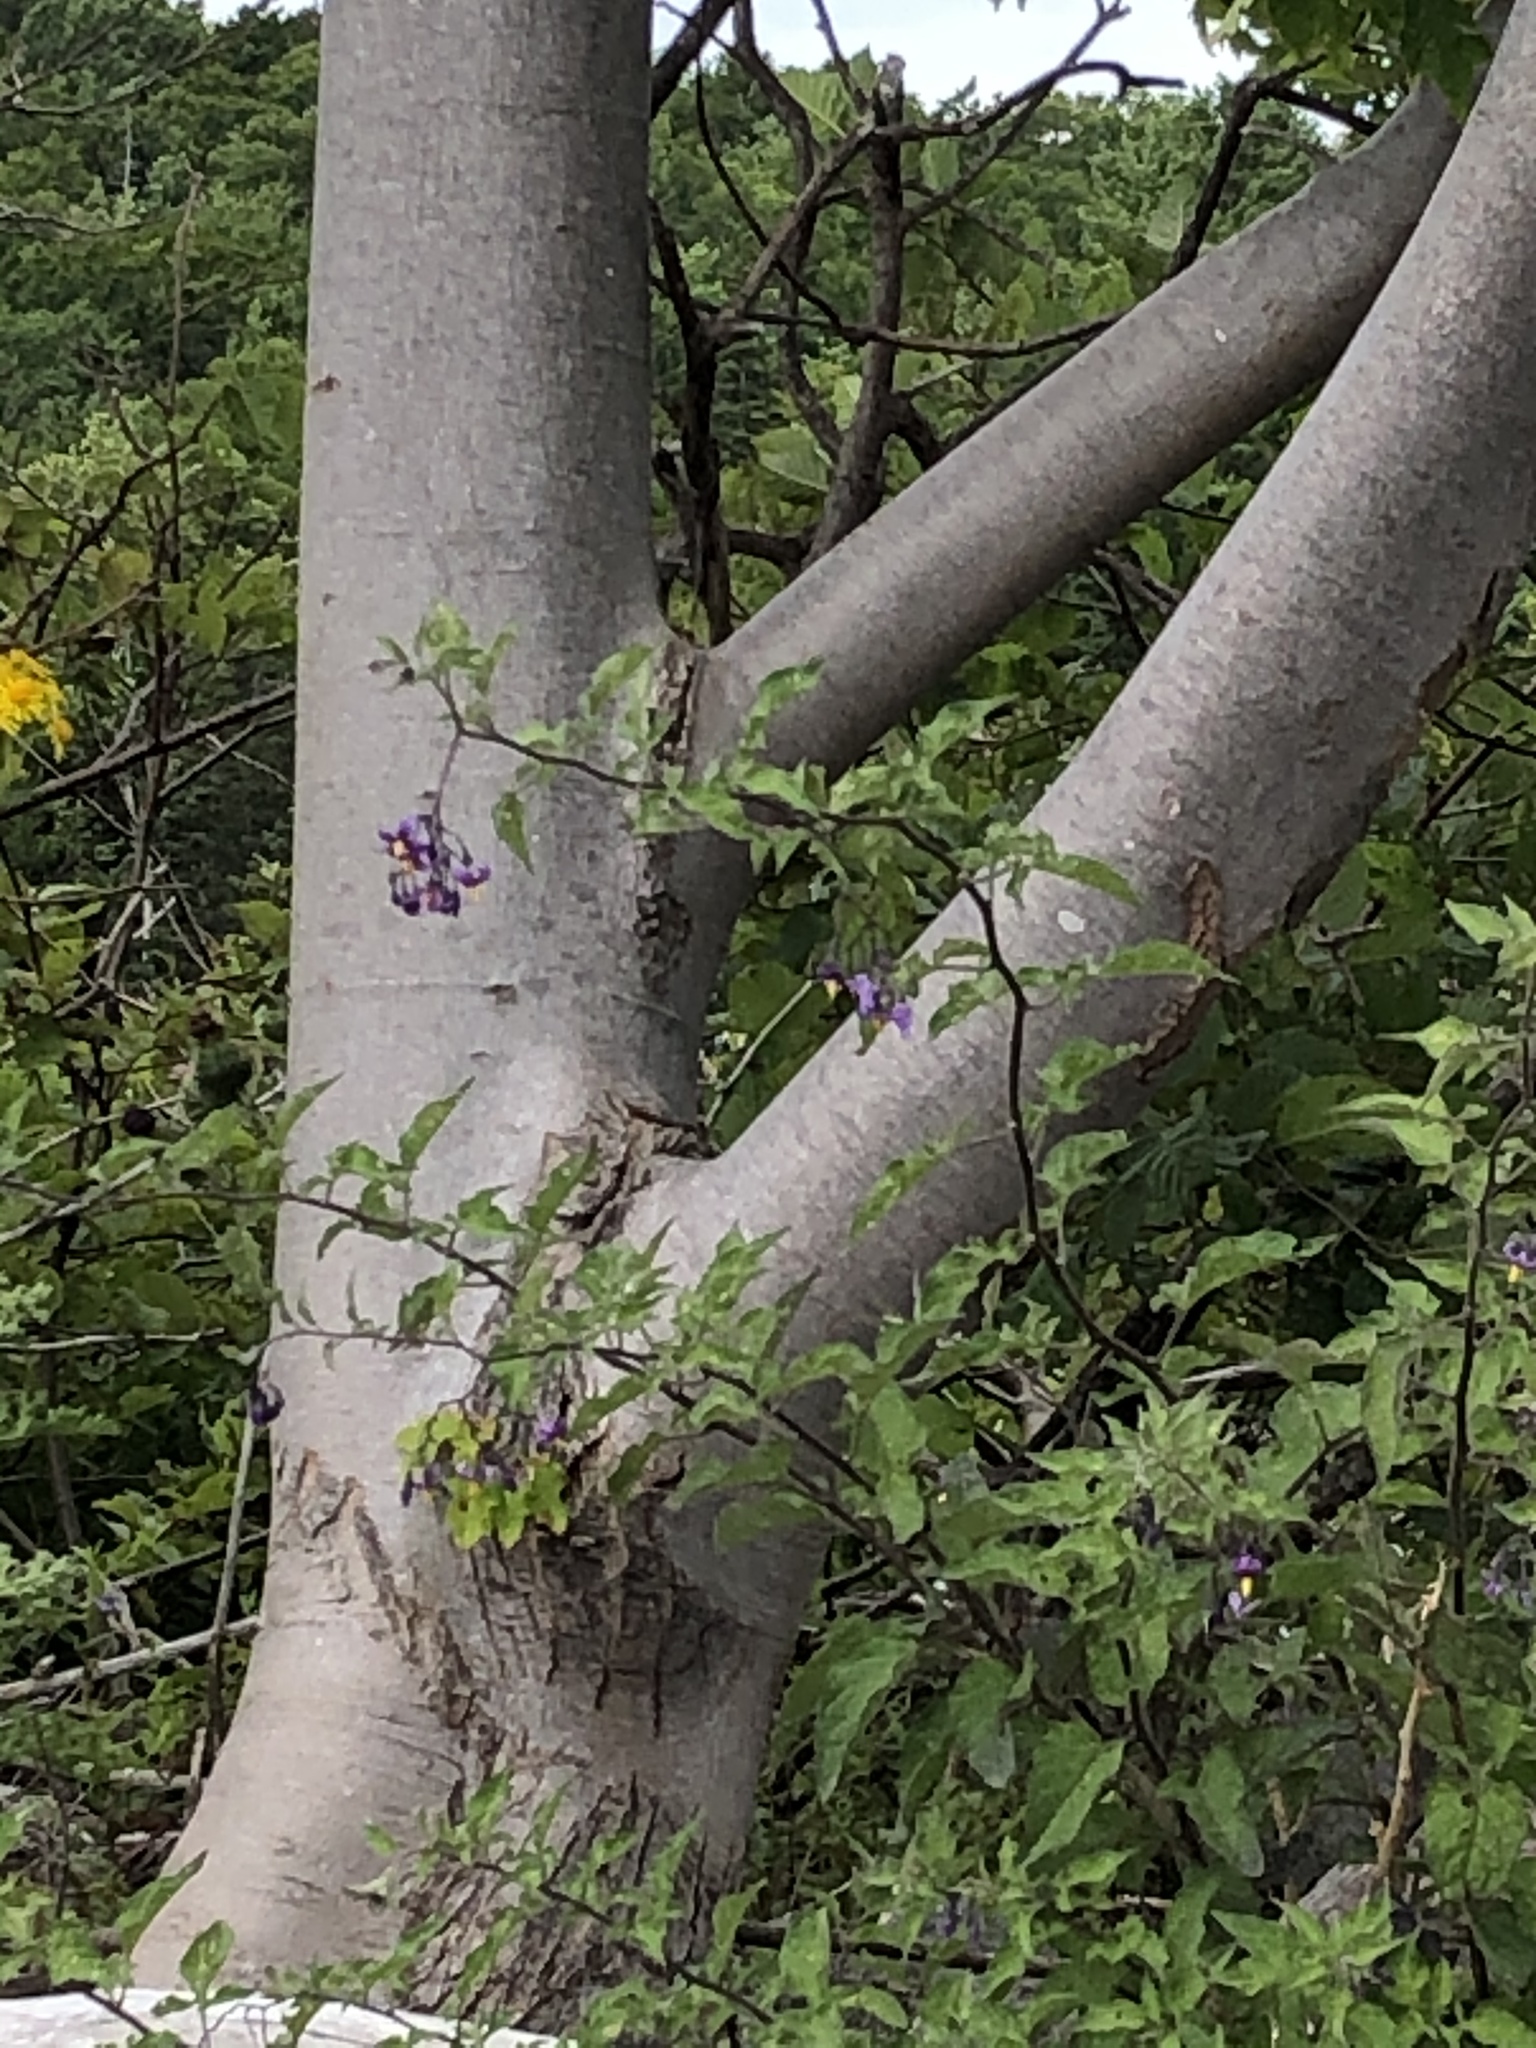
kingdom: Plantae
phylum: Tracheophyta
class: Magnoliopsida
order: Solanales
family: Solanaceae
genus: Solanum
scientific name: Solanum dulcamara
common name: Climbing nightshade
